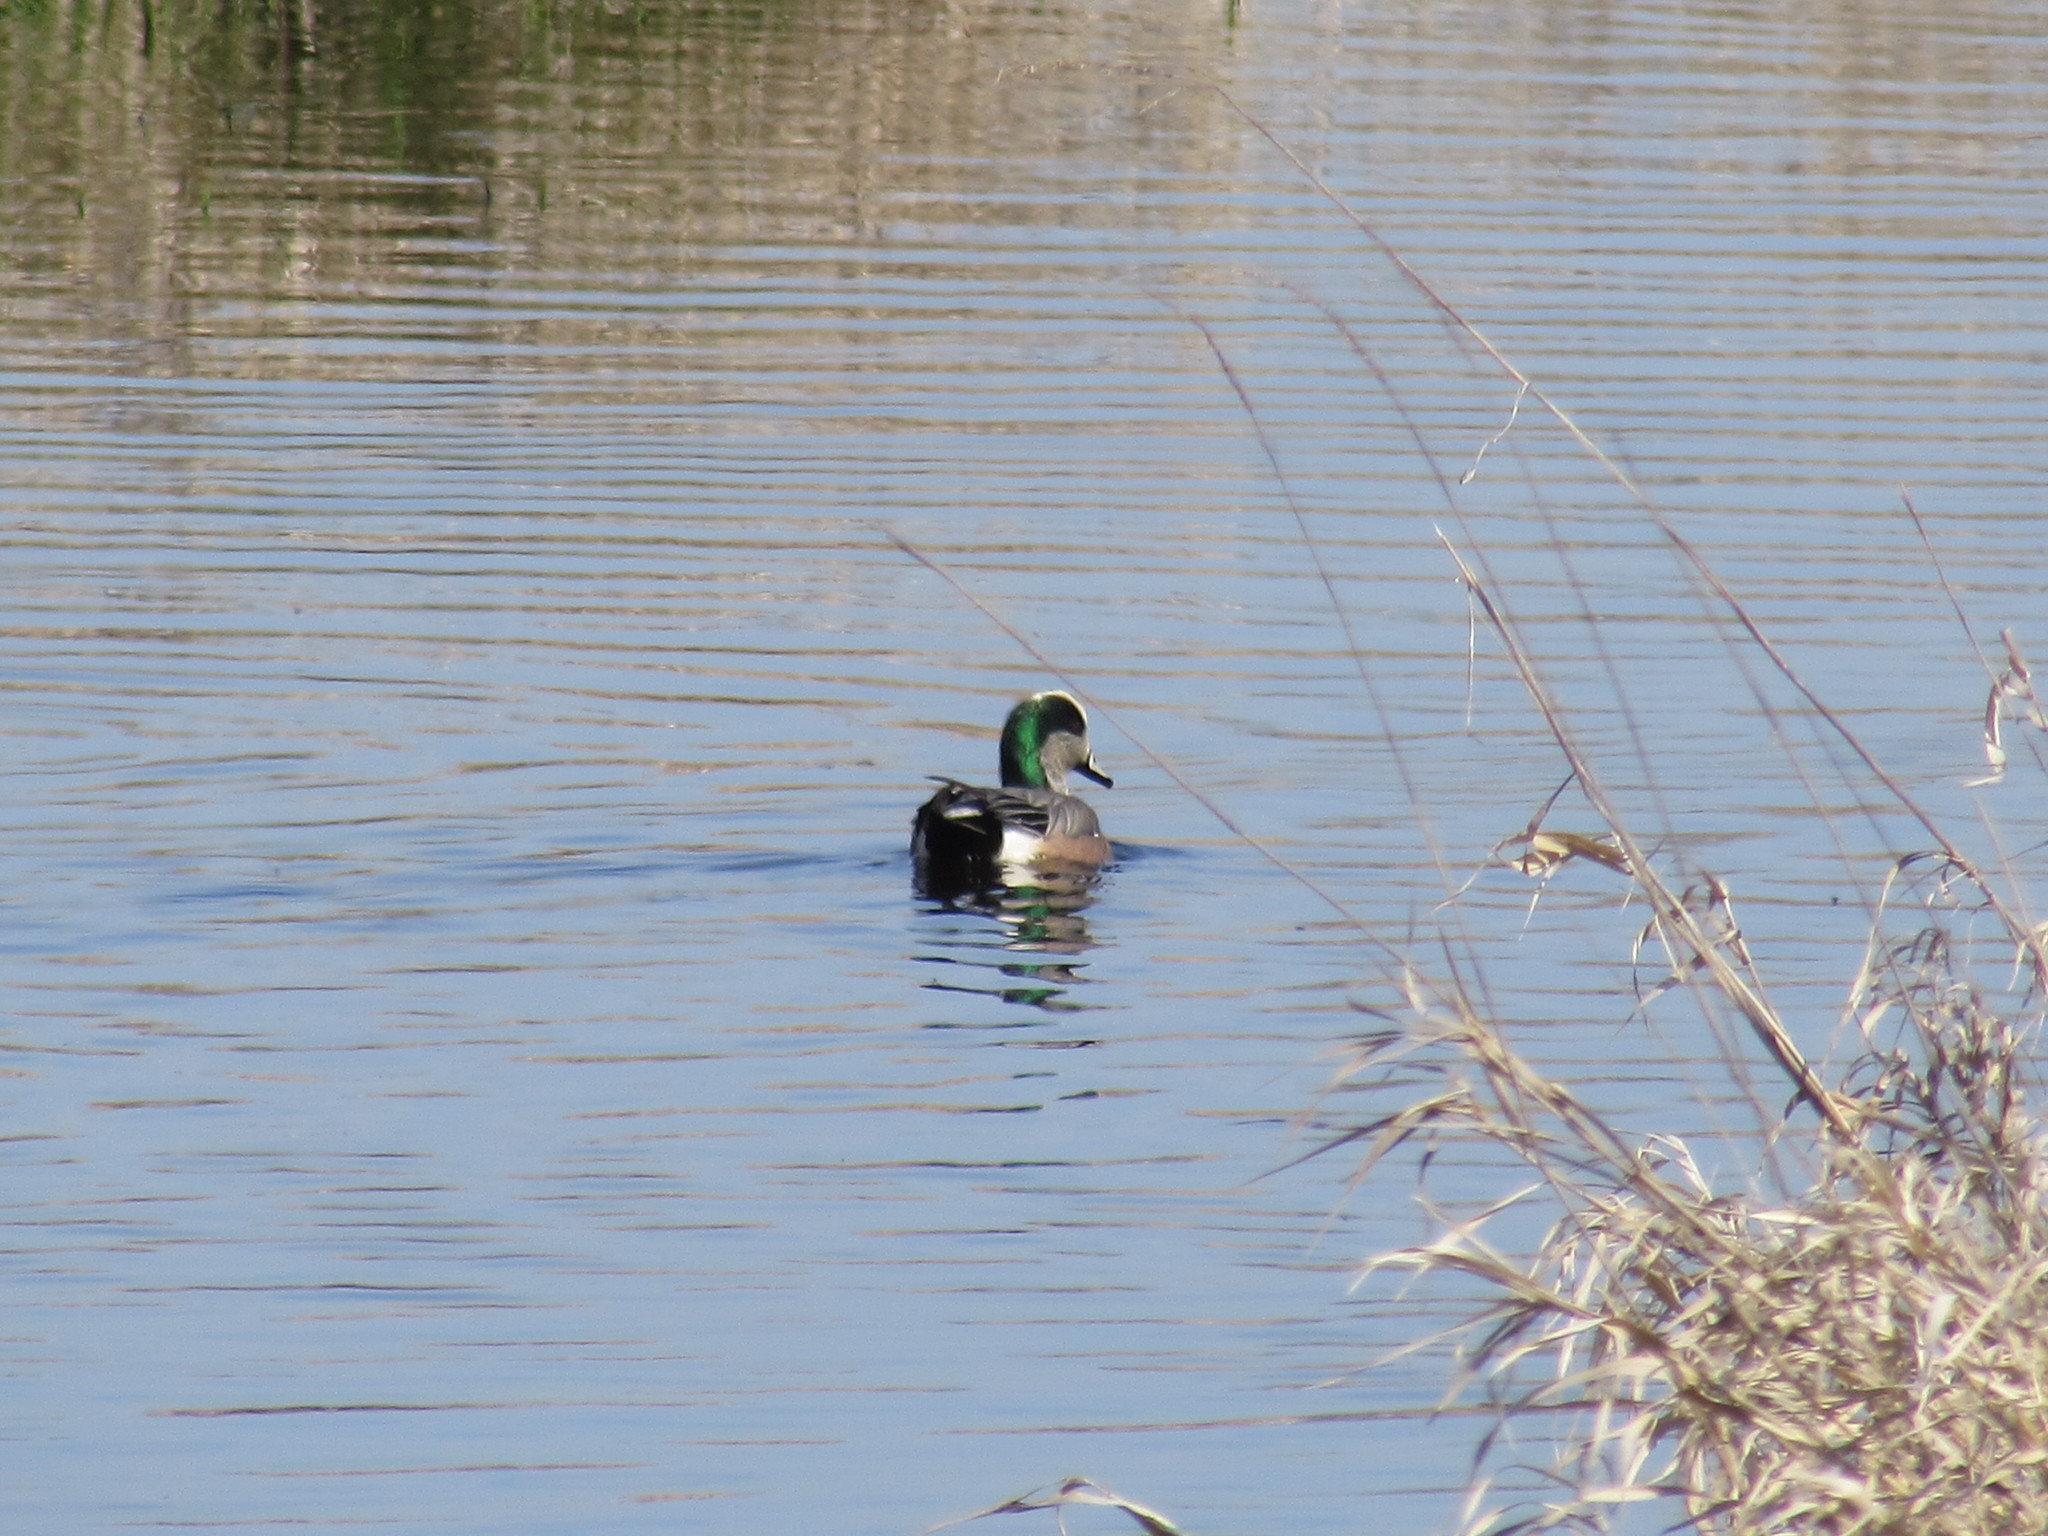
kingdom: Animalia
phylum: Chordata
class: Aves
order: Anseriformes
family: Anatidae
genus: Mareca
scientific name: Mareca americana
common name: American wigeon
